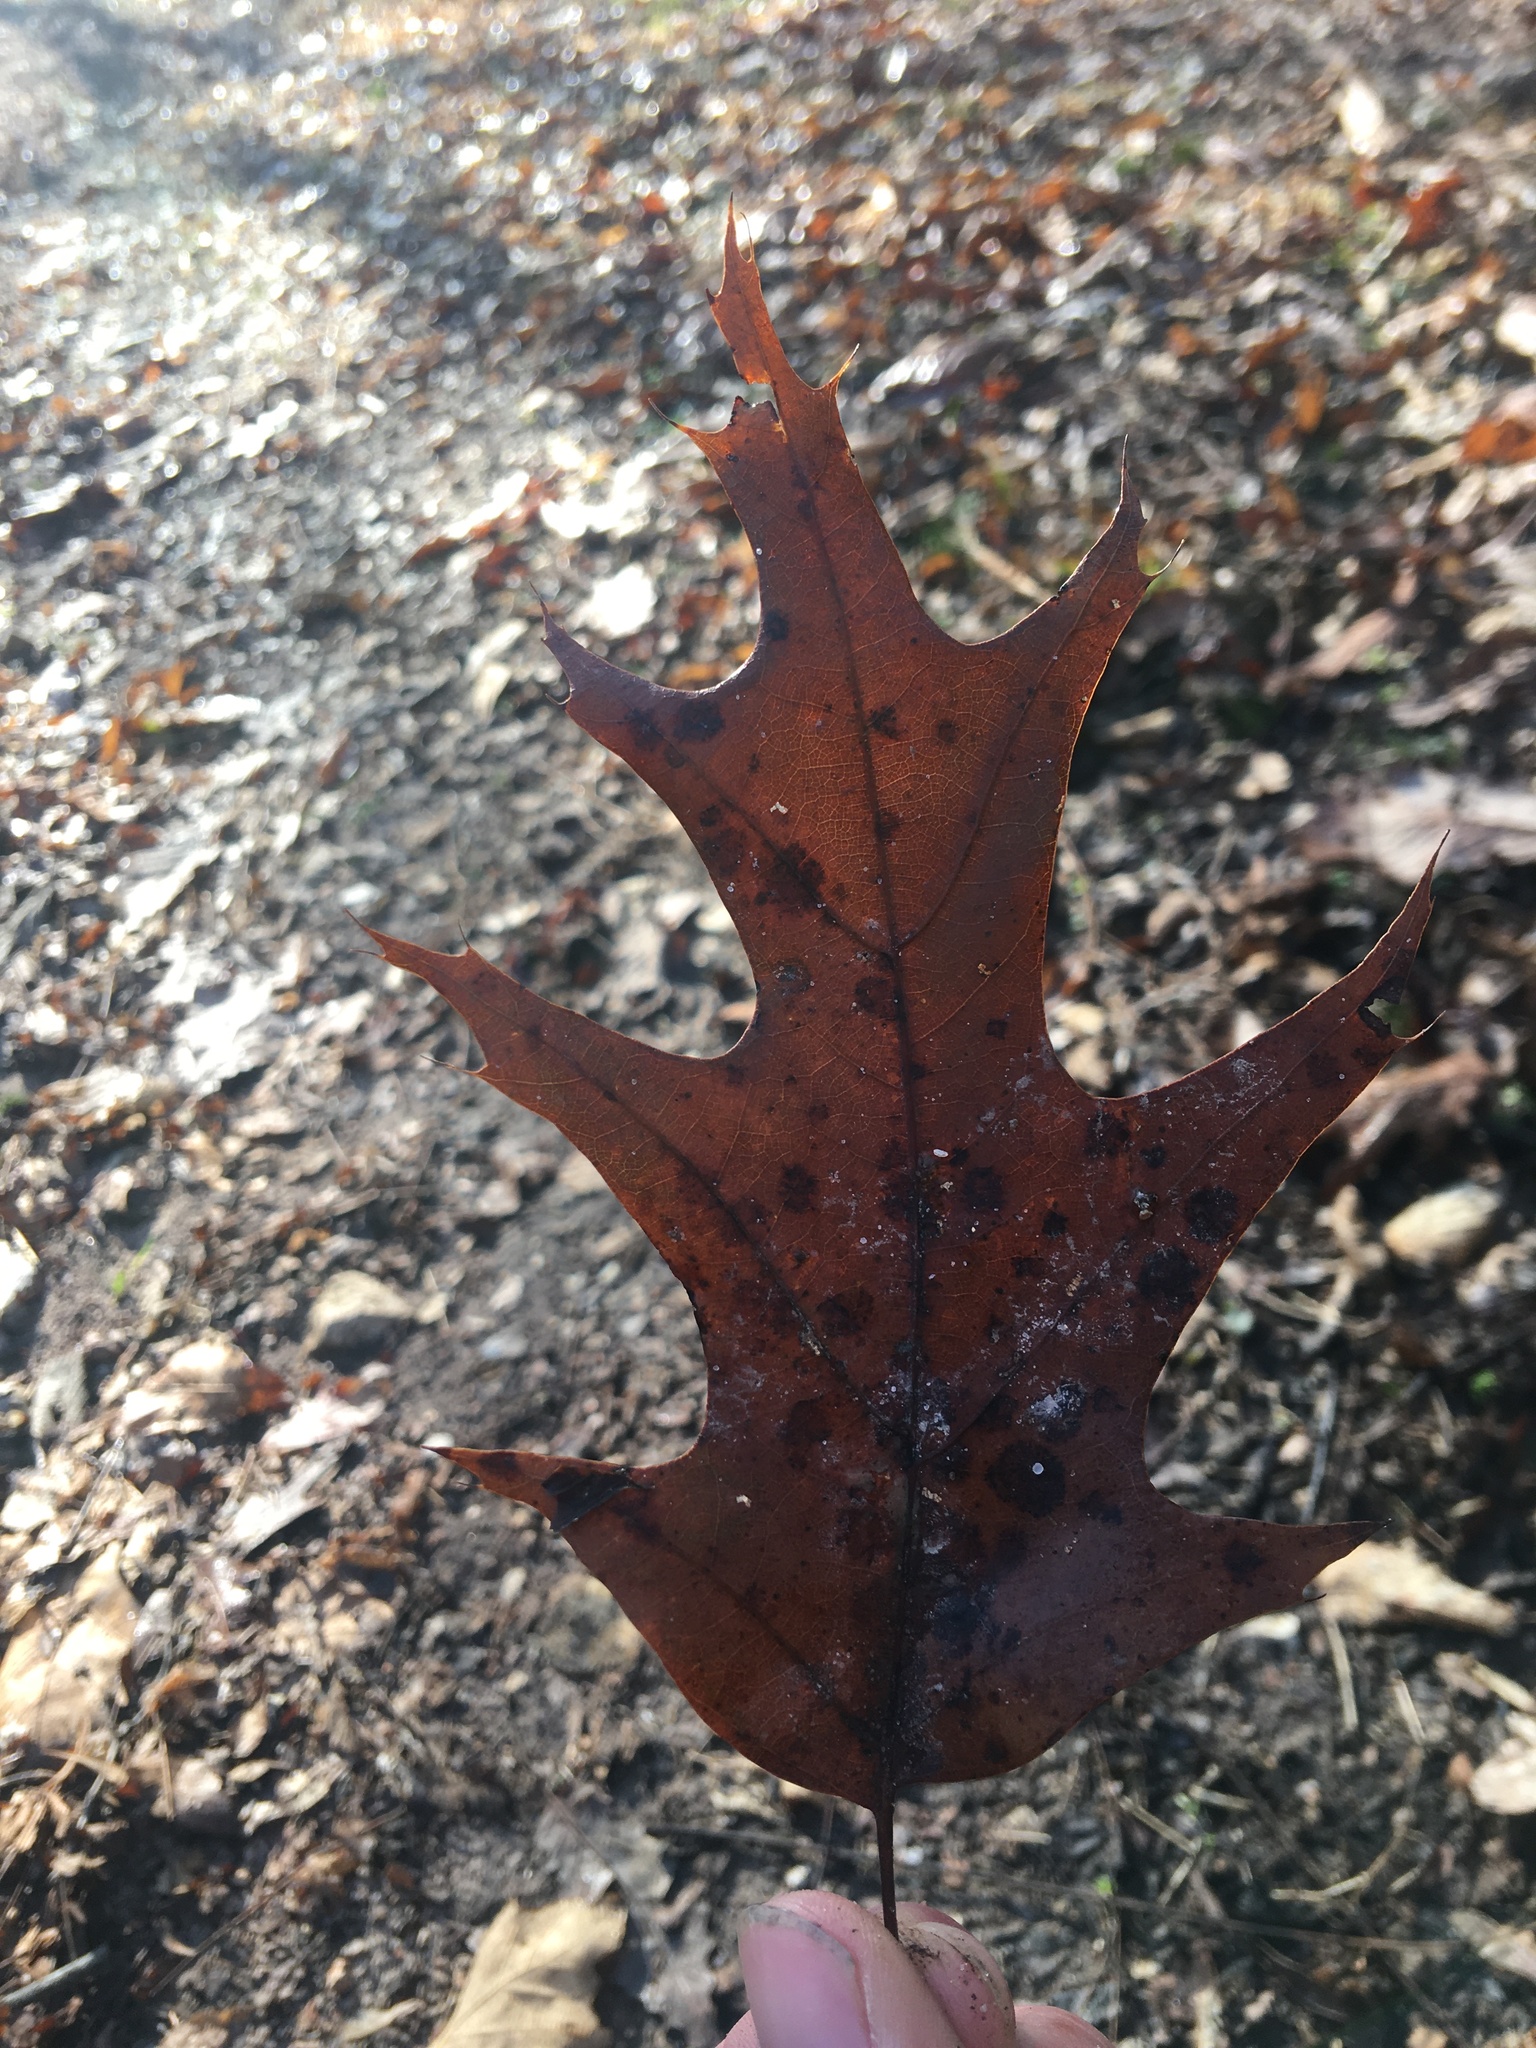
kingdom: Plantae
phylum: Tracheophyta
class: Magnoliopsida
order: Fagales
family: Fagaceae
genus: Quercus
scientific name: Quercus pagoda
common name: Cherrybark oak
